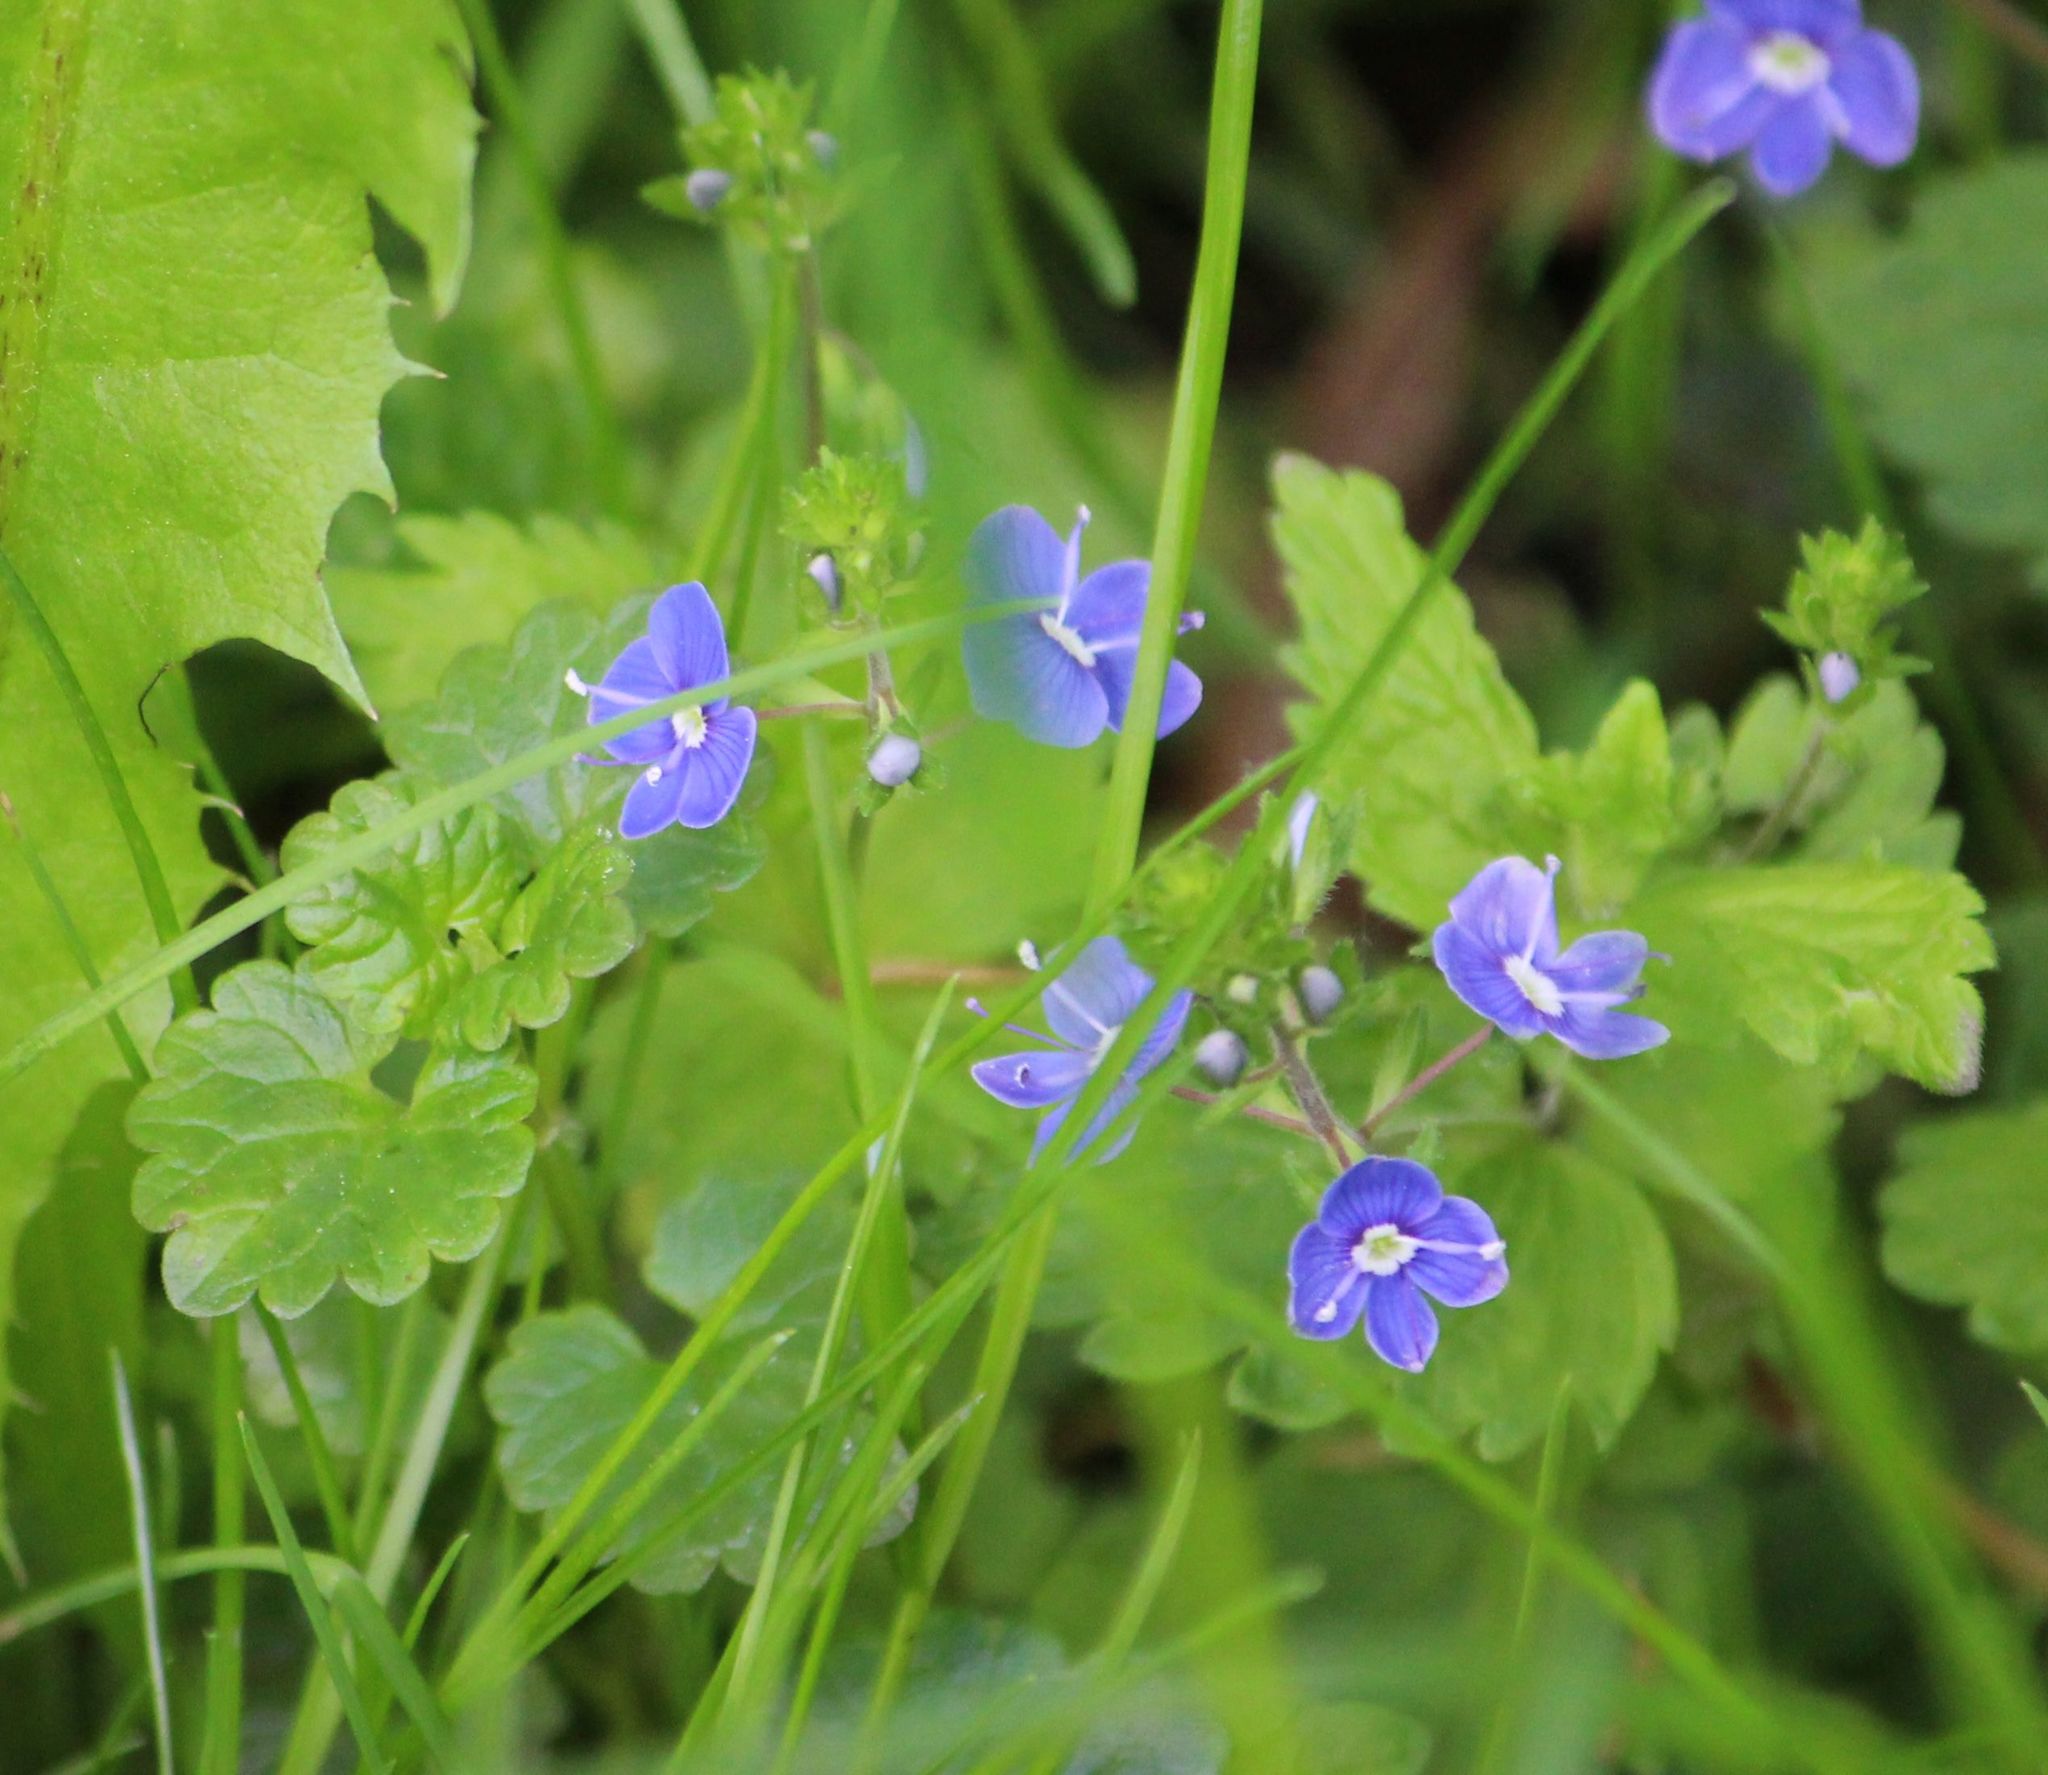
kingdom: Plantae
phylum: Tracheophyta
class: Magnoliopsida
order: Lamiales
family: Plantaginaceae
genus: Veronica
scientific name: Veronica chamaedrys
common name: Germander speedwell
